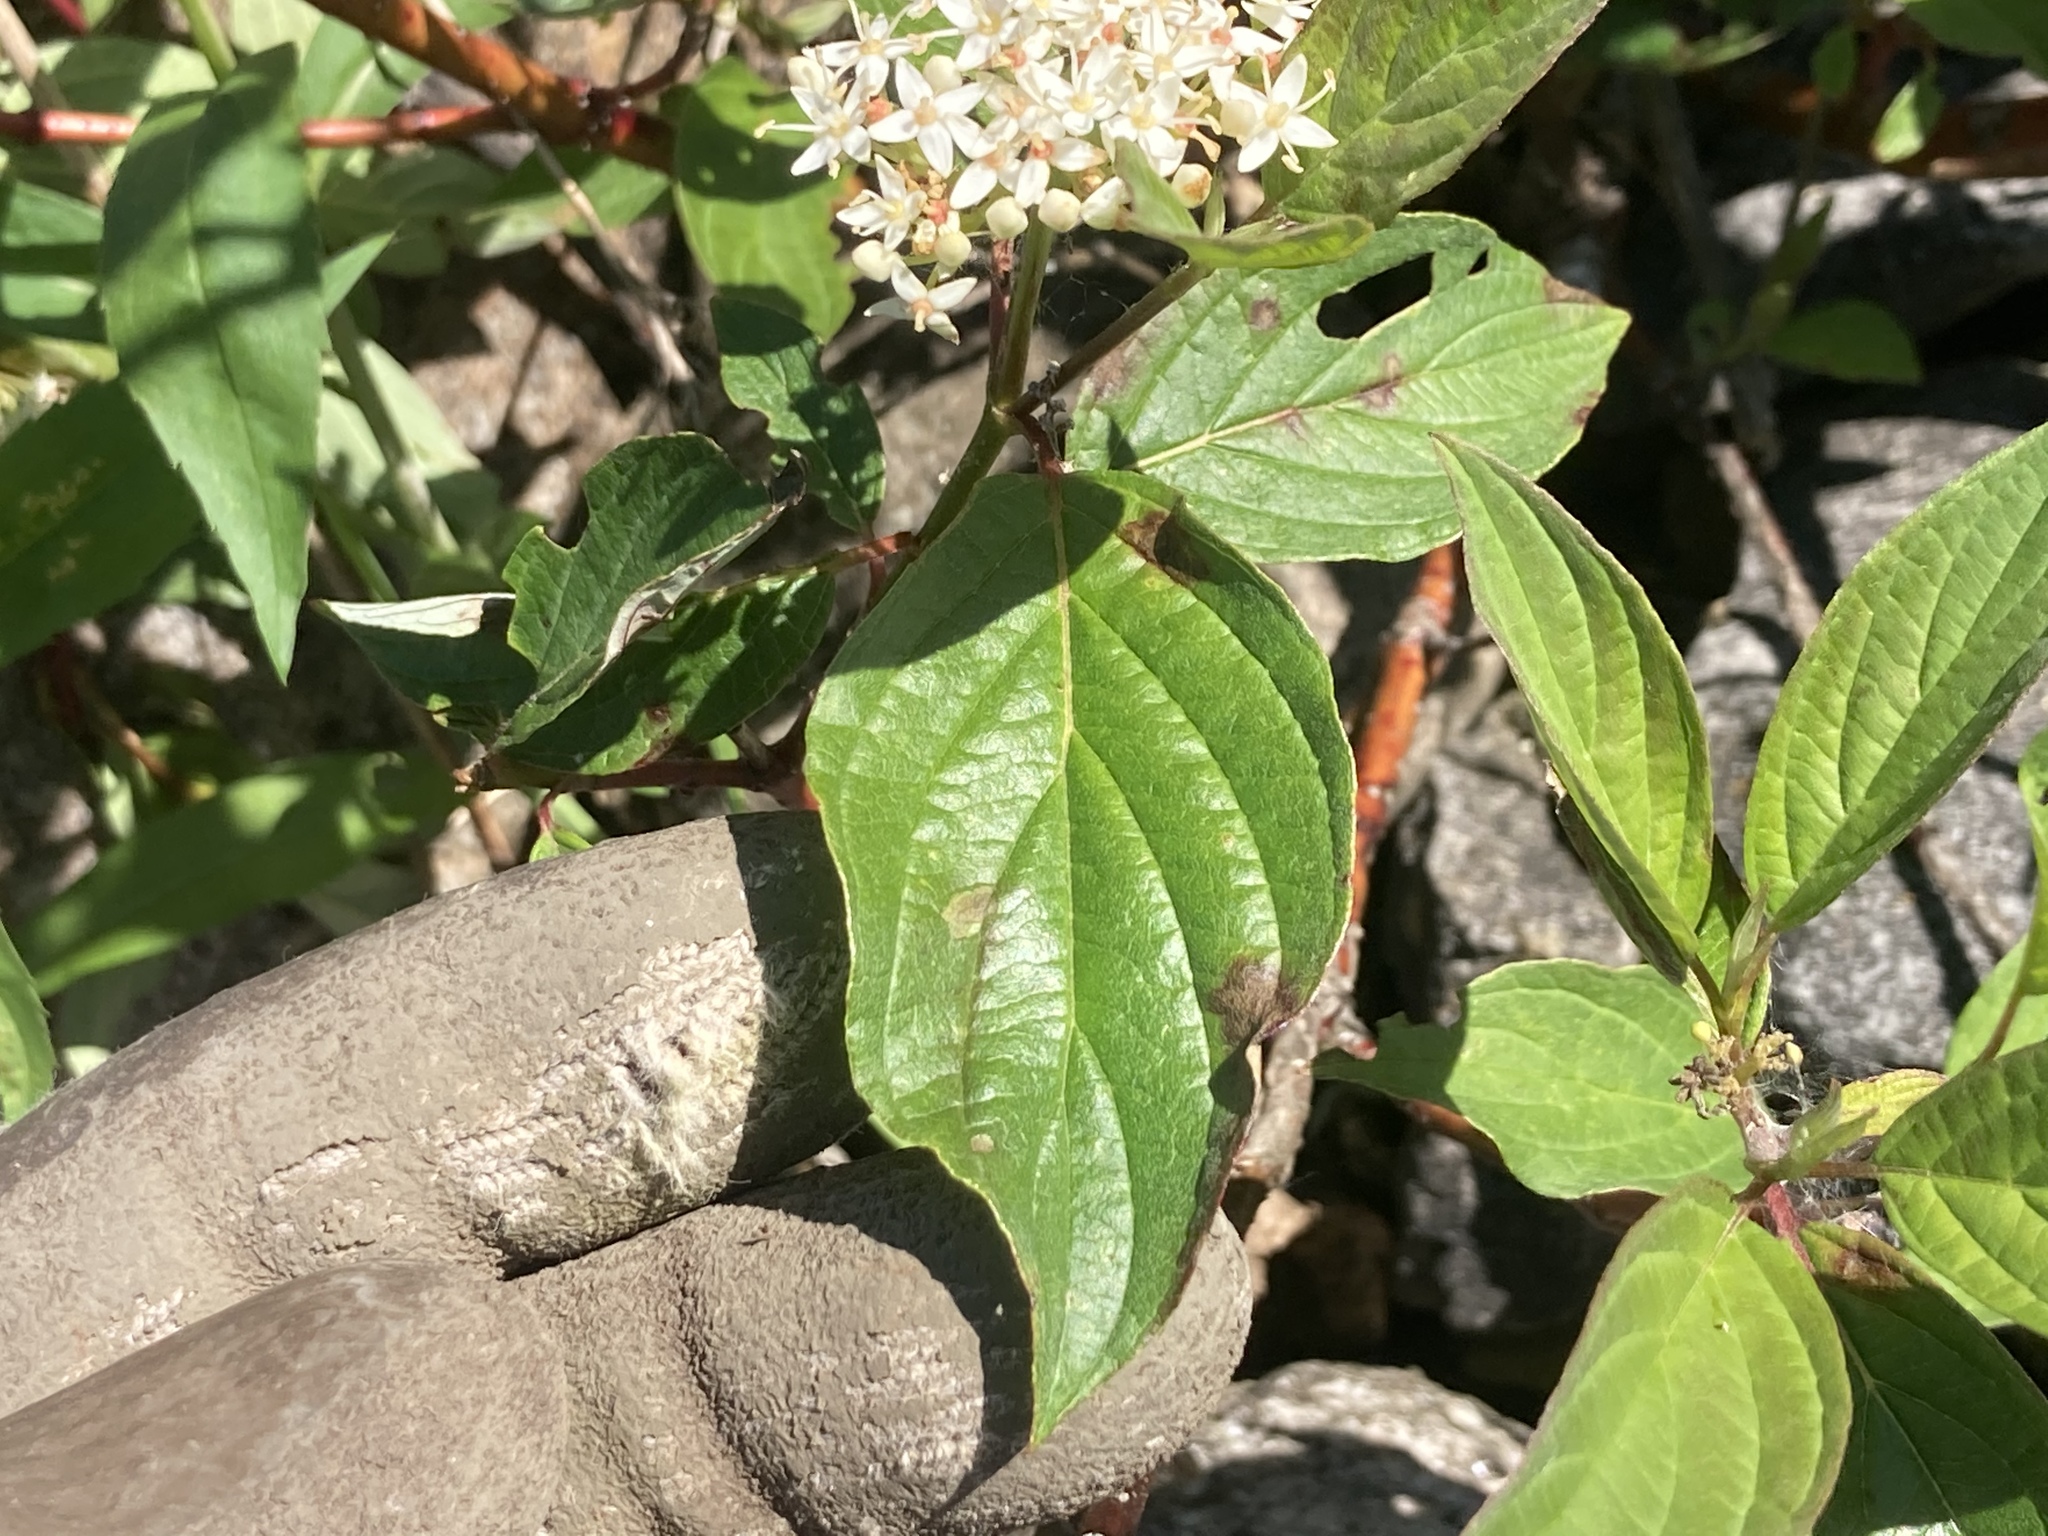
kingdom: Plantae
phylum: Tracheophyta
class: Magnoliopsida
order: Cornales
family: Cornaceae
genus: Cornus
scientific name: Cornus sericea
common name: Red-osier dogwood
